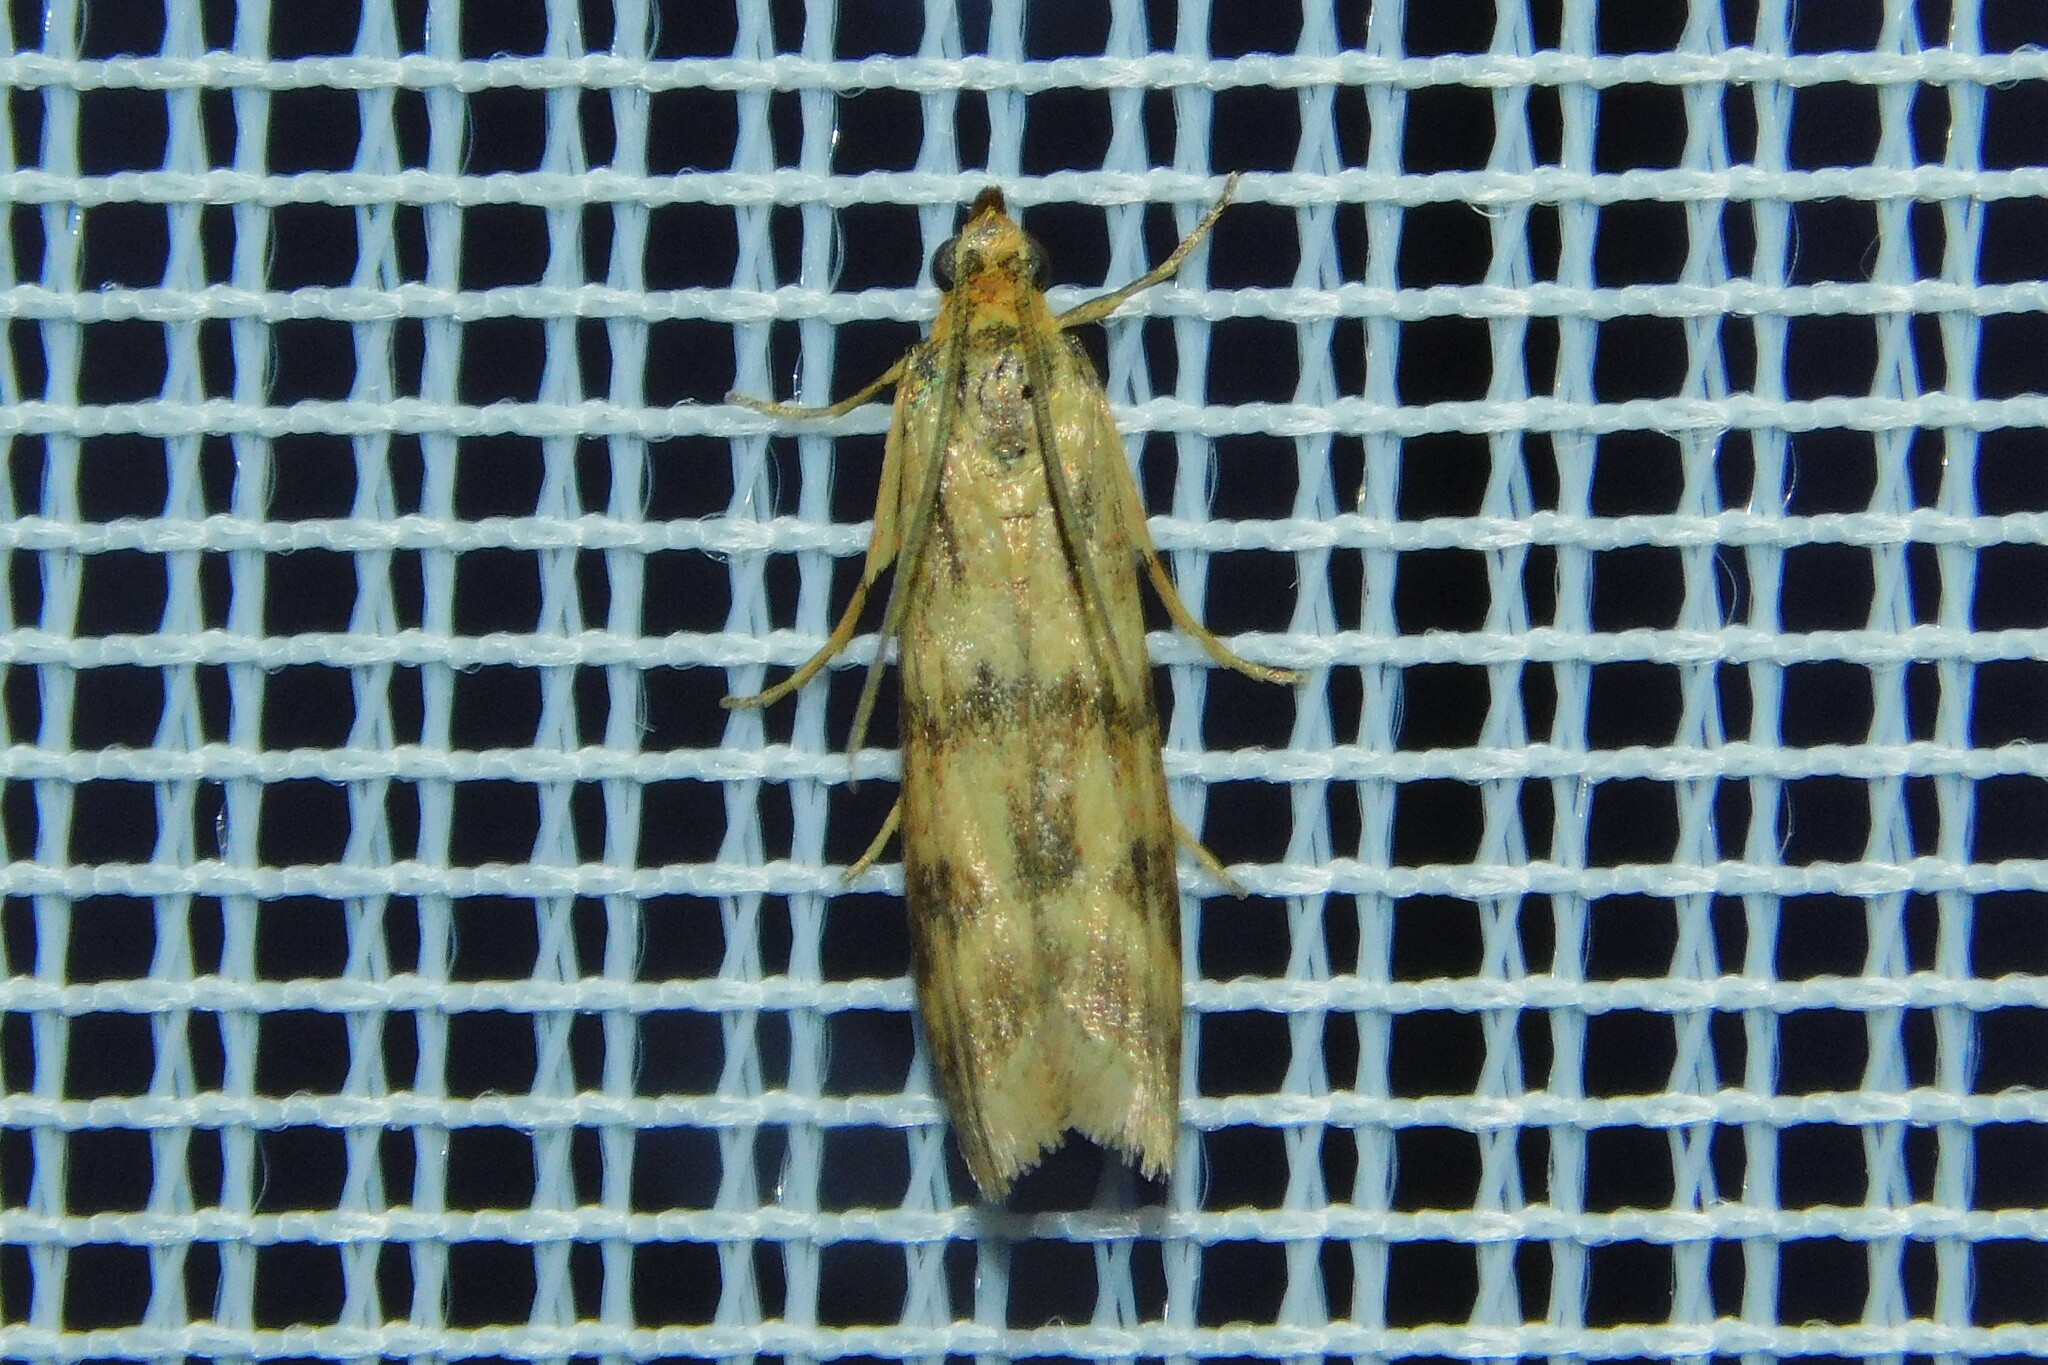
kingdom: Animalia
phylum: Arthropoda
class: Insecta
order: Lepidoptera
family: Pyralidae
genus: Homoeosoma
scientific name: Homoeosoma sinuella
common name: Twin-barred knot-horn
